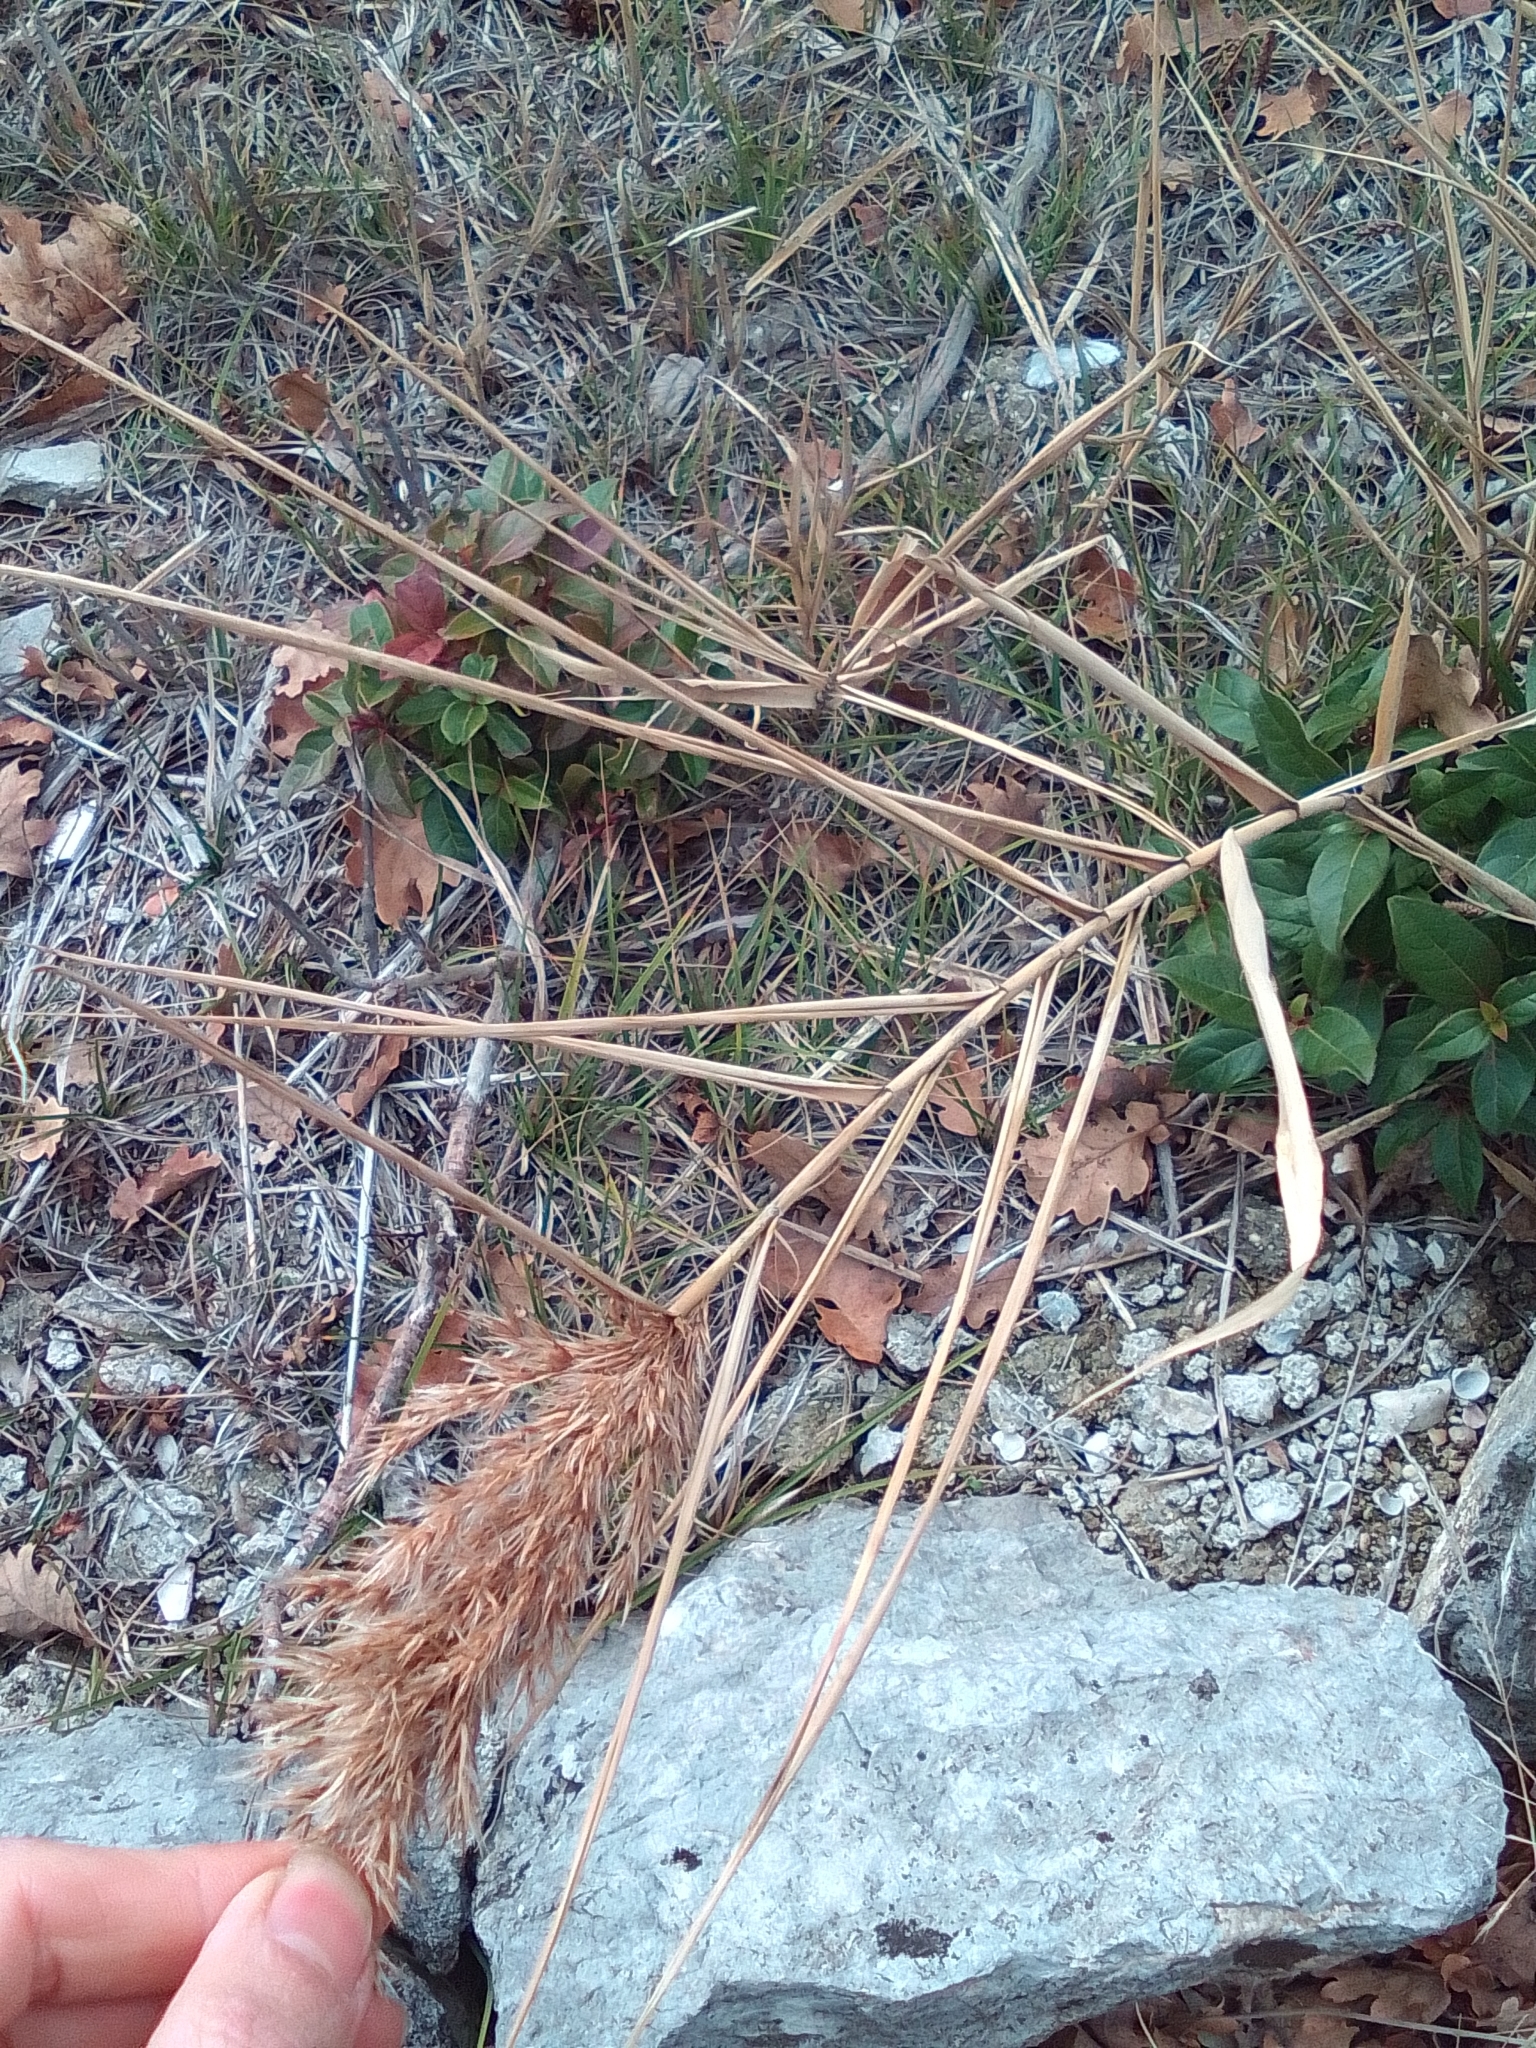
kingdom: Plantae
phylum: Tracheophyta
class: Liliopsida
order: Poales
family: Poaceae
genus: Phragmites
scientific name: Phragmites australis
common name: Common reed
